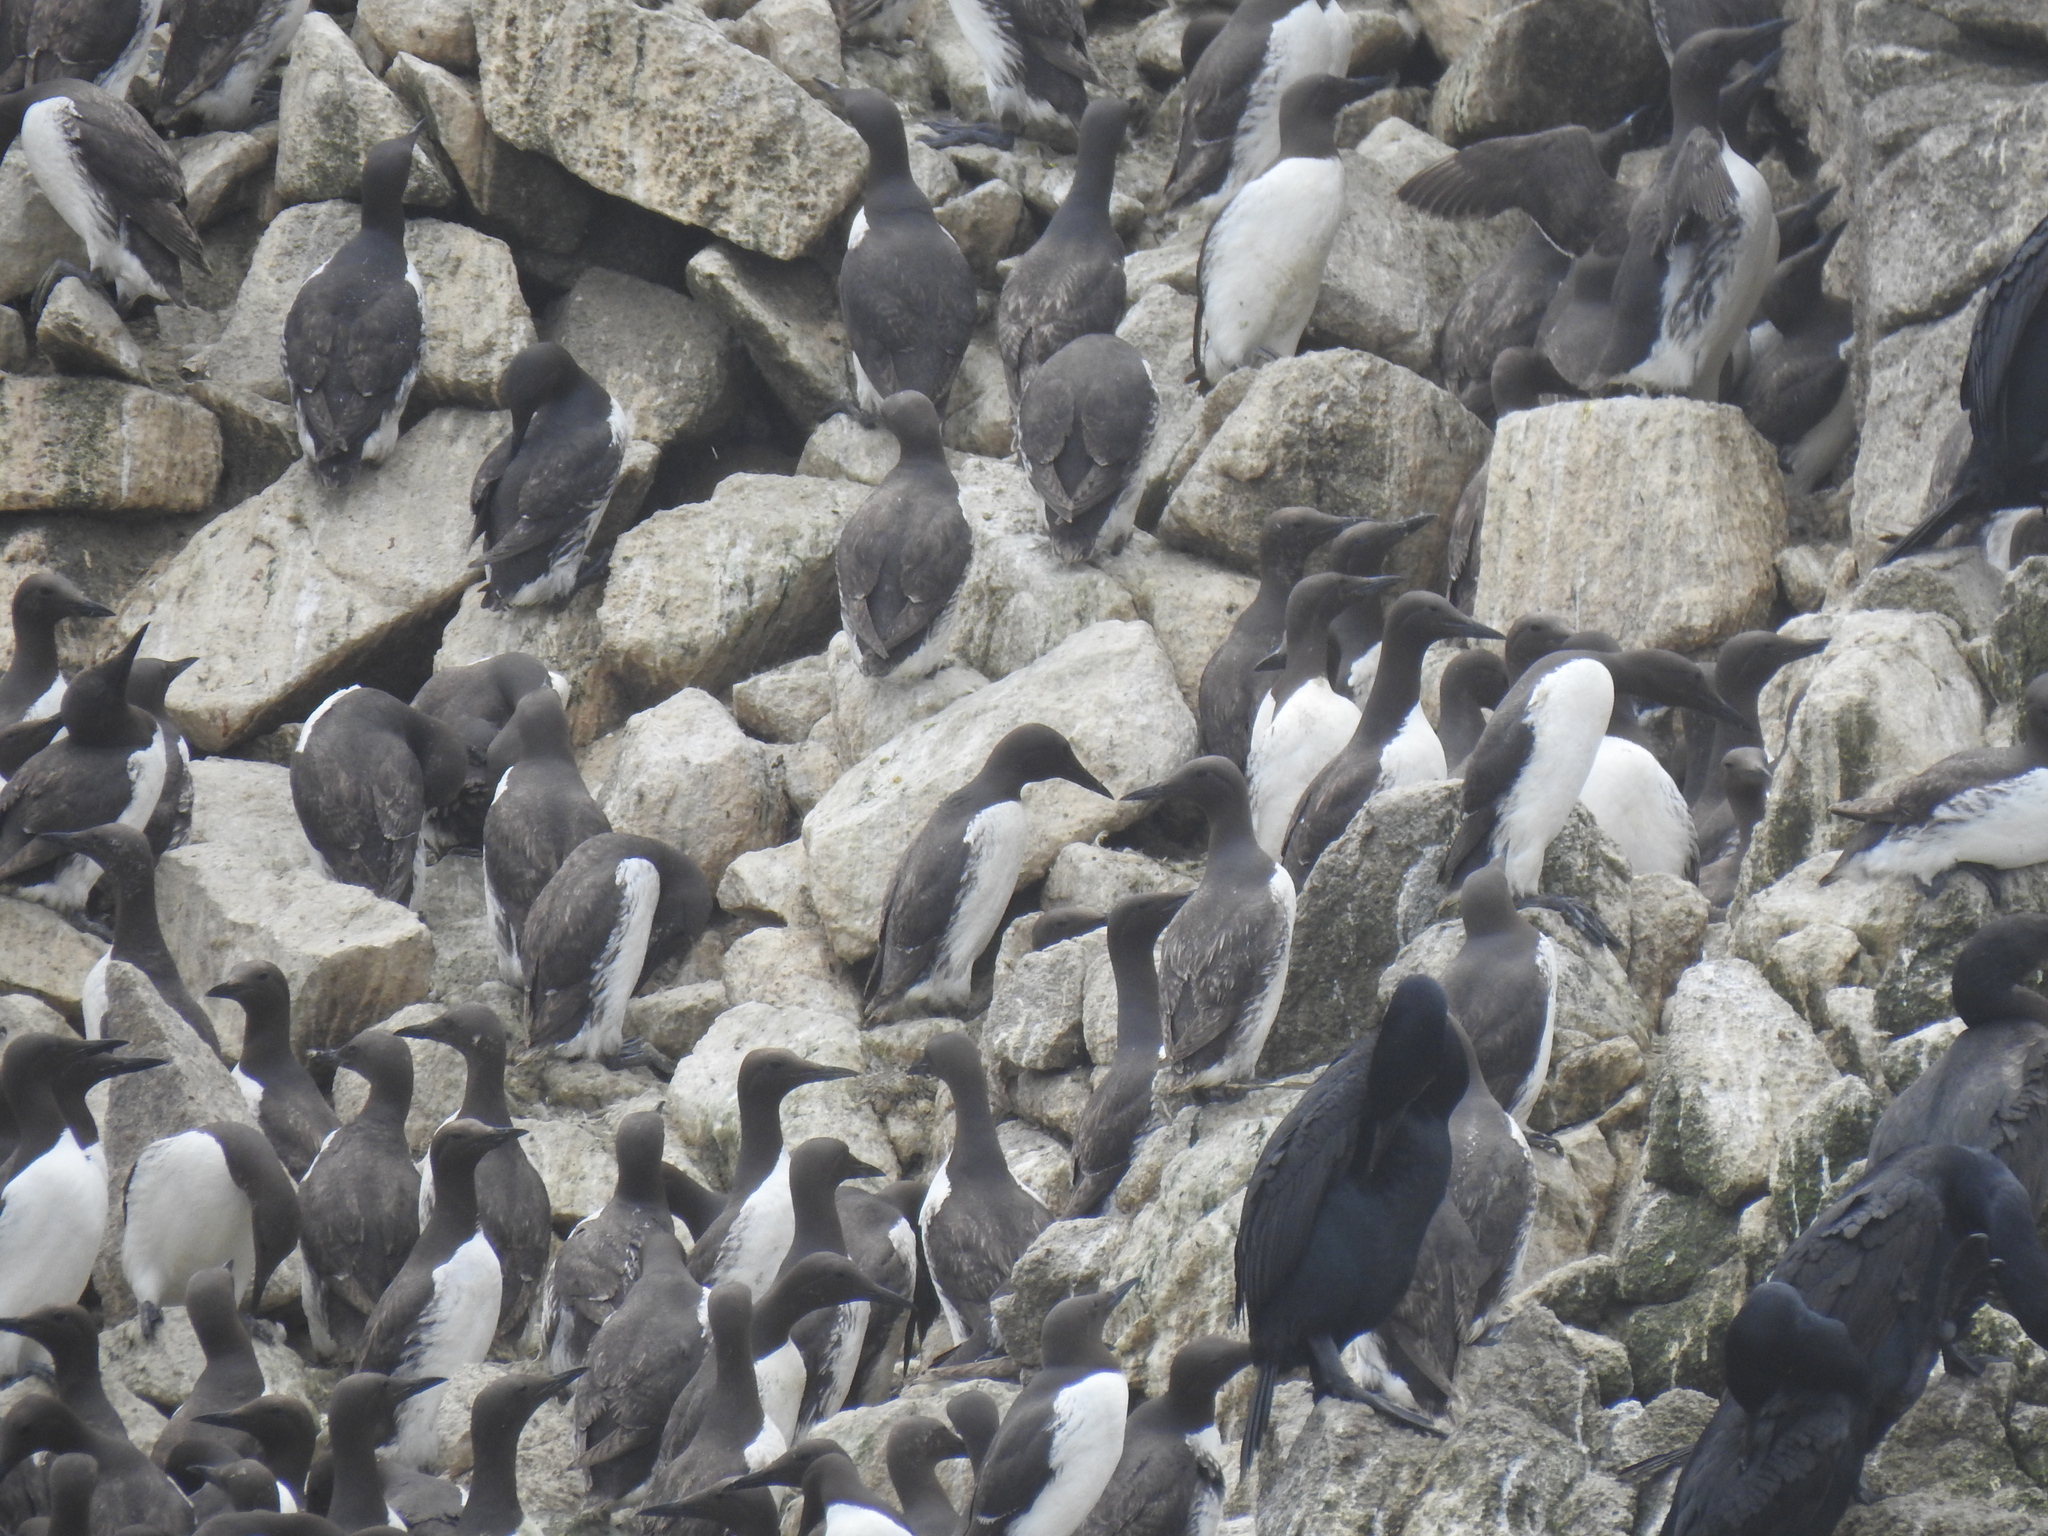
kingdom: Animalia
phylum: Chordata
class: Aves
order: Charadriiformes
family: Alcidae
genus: Uria
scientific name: Uria aalge
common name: Common murre
